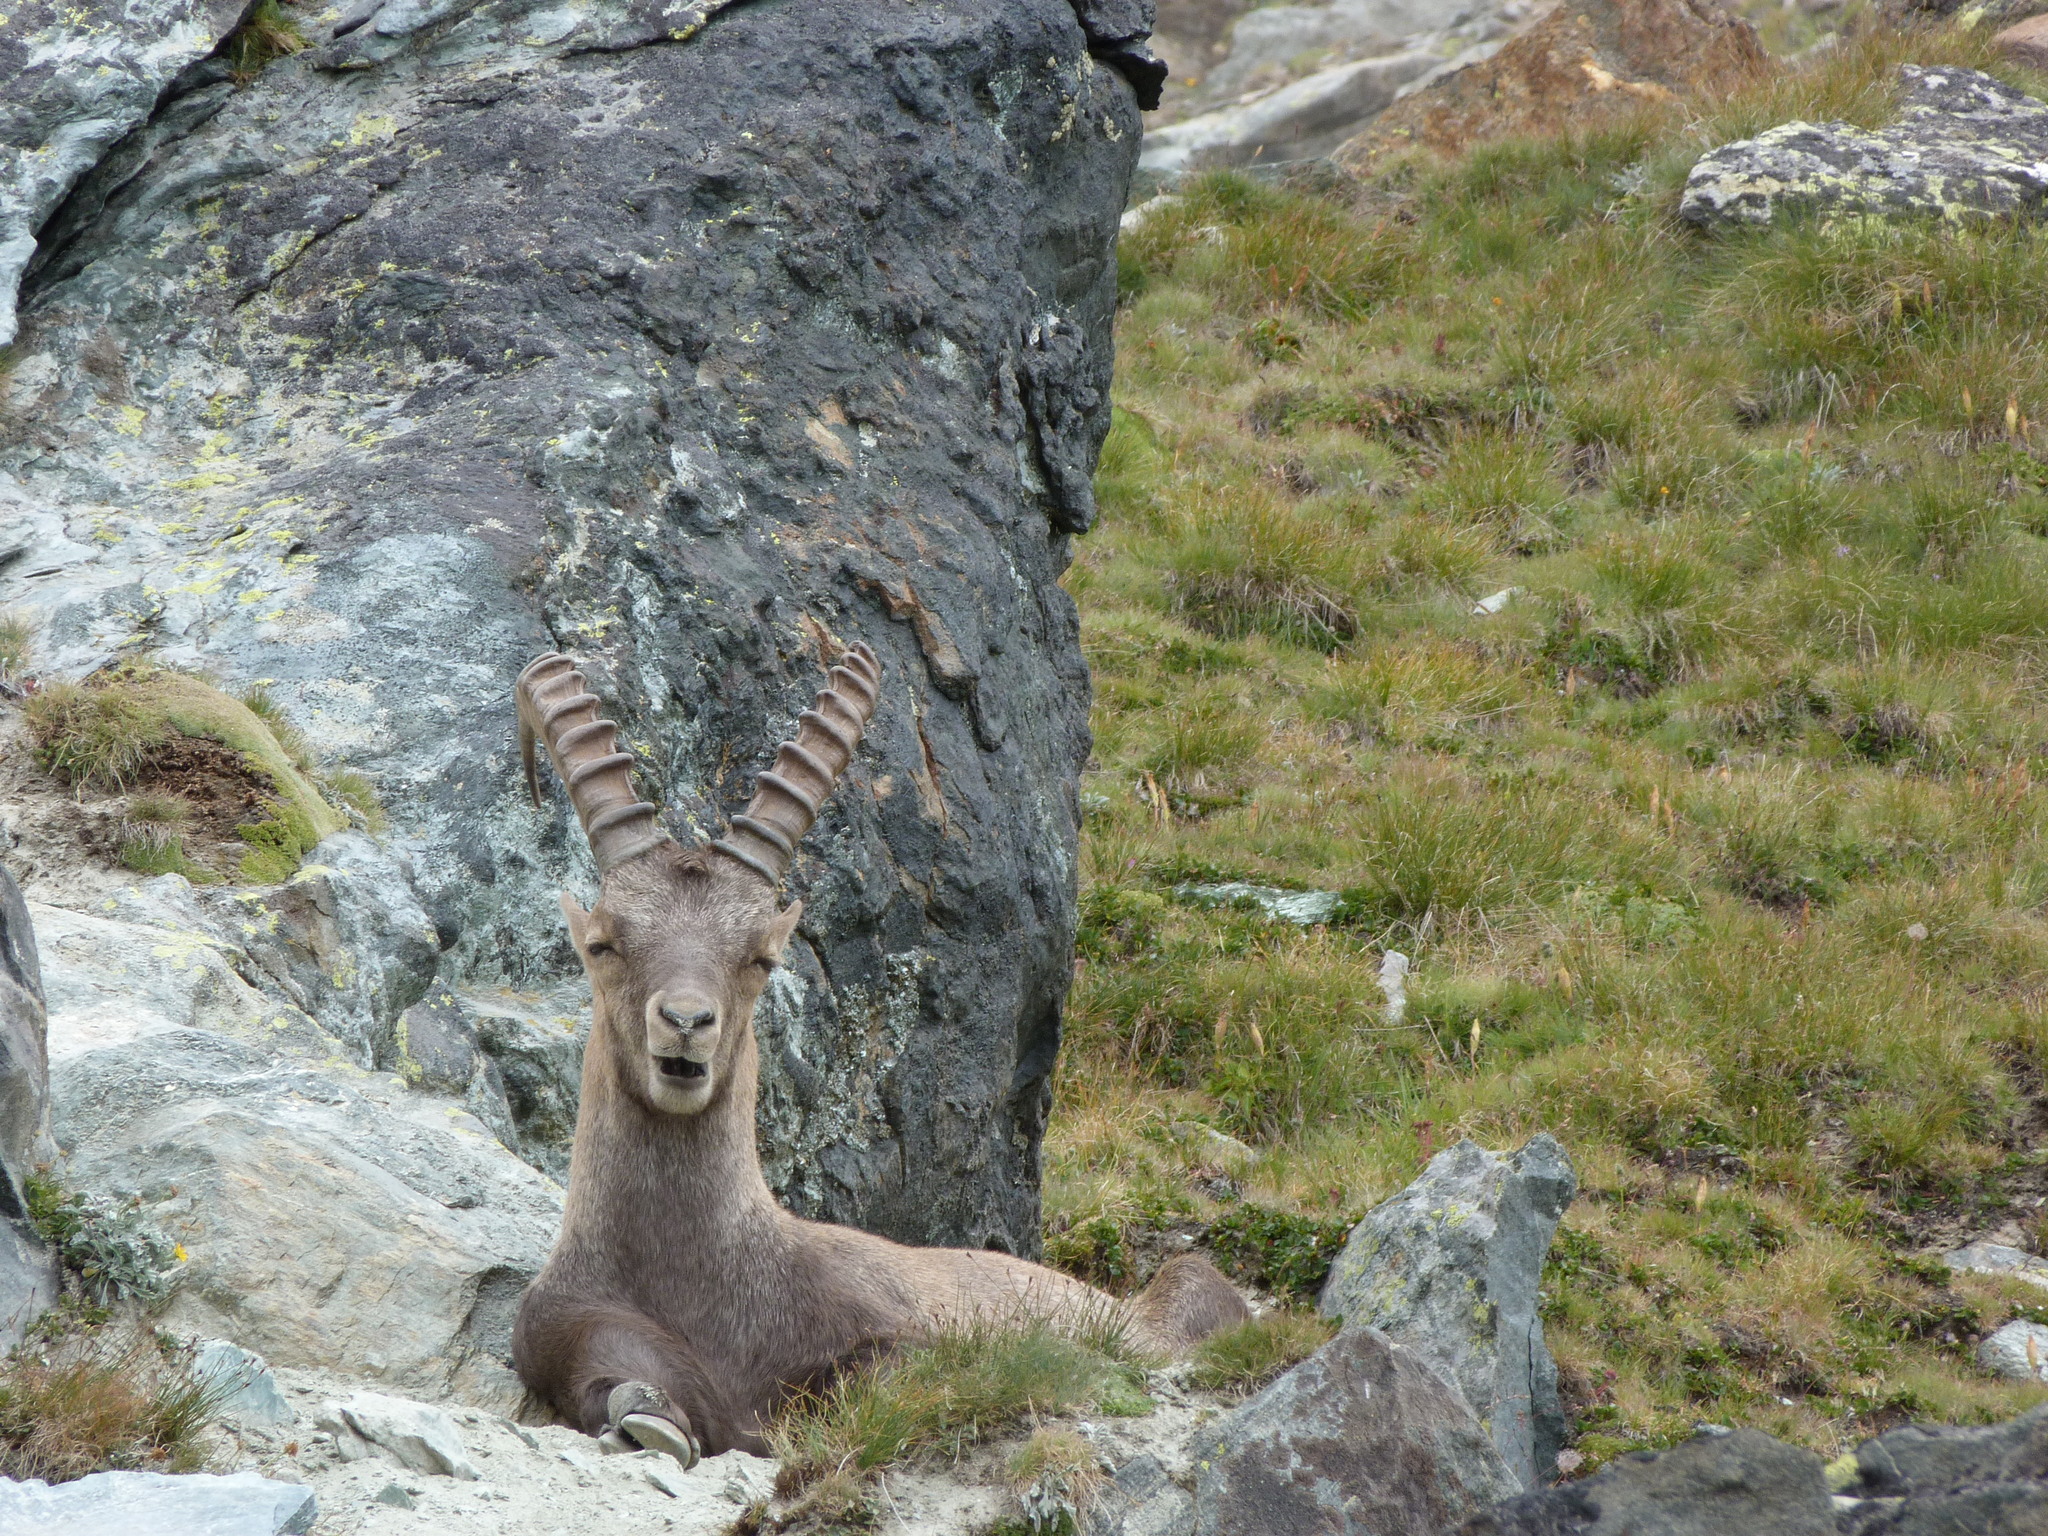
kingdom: Animalia
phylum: Chordata
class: Mammalia
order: Artiodactyla
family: Bovidae
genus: Capra
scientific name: Capra ibex
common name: Alpine ibex
